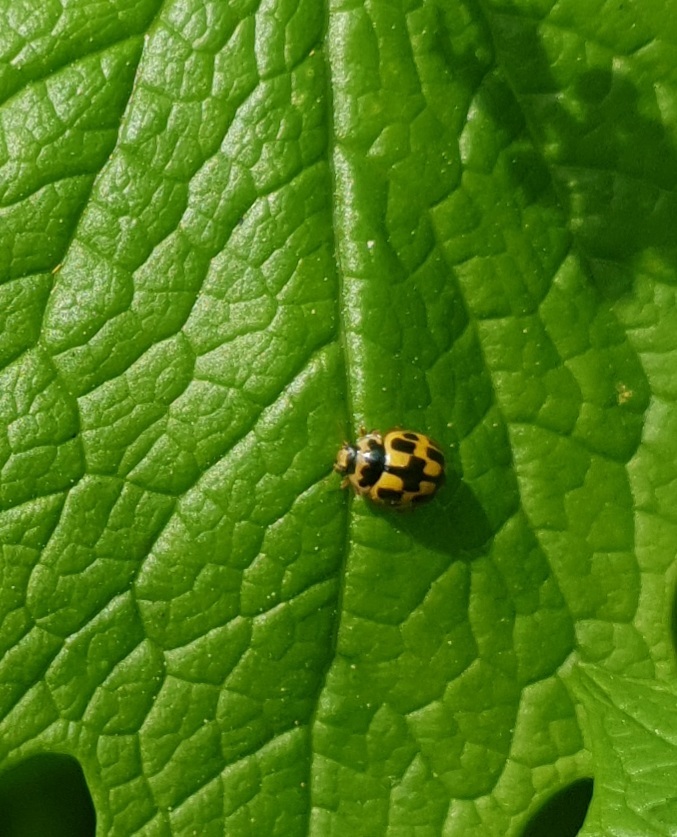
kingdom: Animalia
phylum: Arthropoda
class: Insecta
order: Coleoptera
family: Coccinellidae
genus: Propylaea
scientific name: Propylaea quatuordecimpunctata
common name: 14-spotted ladybird beetle
